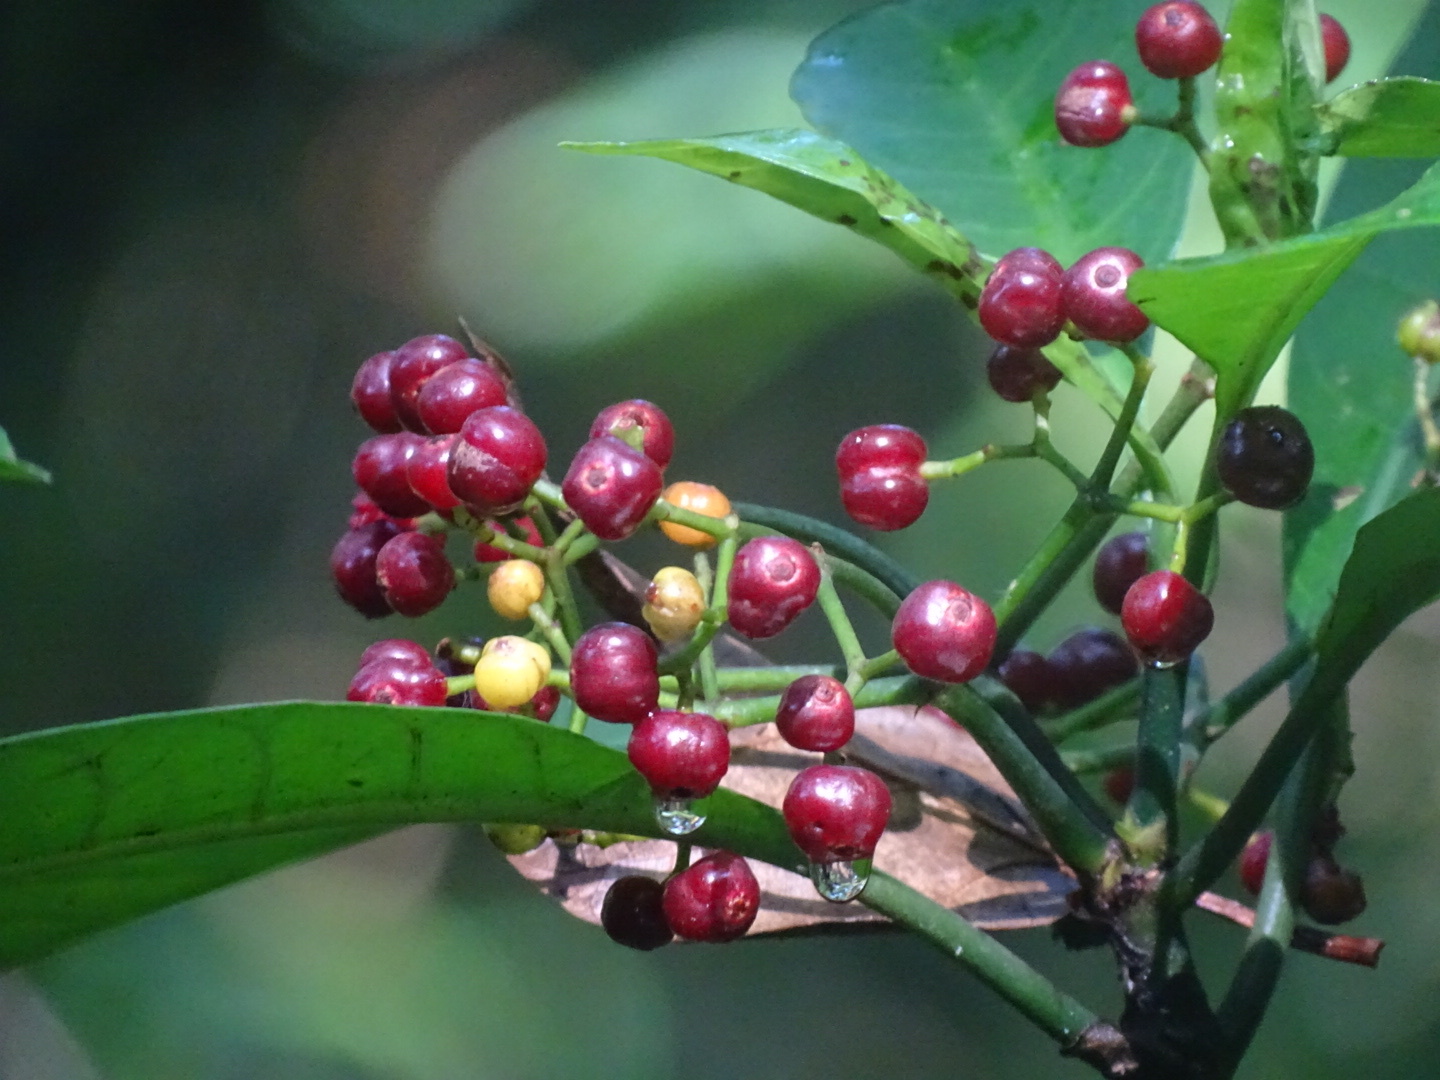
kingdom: Plantae
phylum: Tracheophyta
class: Magnoliopsida
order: Gentianales
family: Rubiaceae
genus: Psychotria
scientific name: Psychotria asiatica
